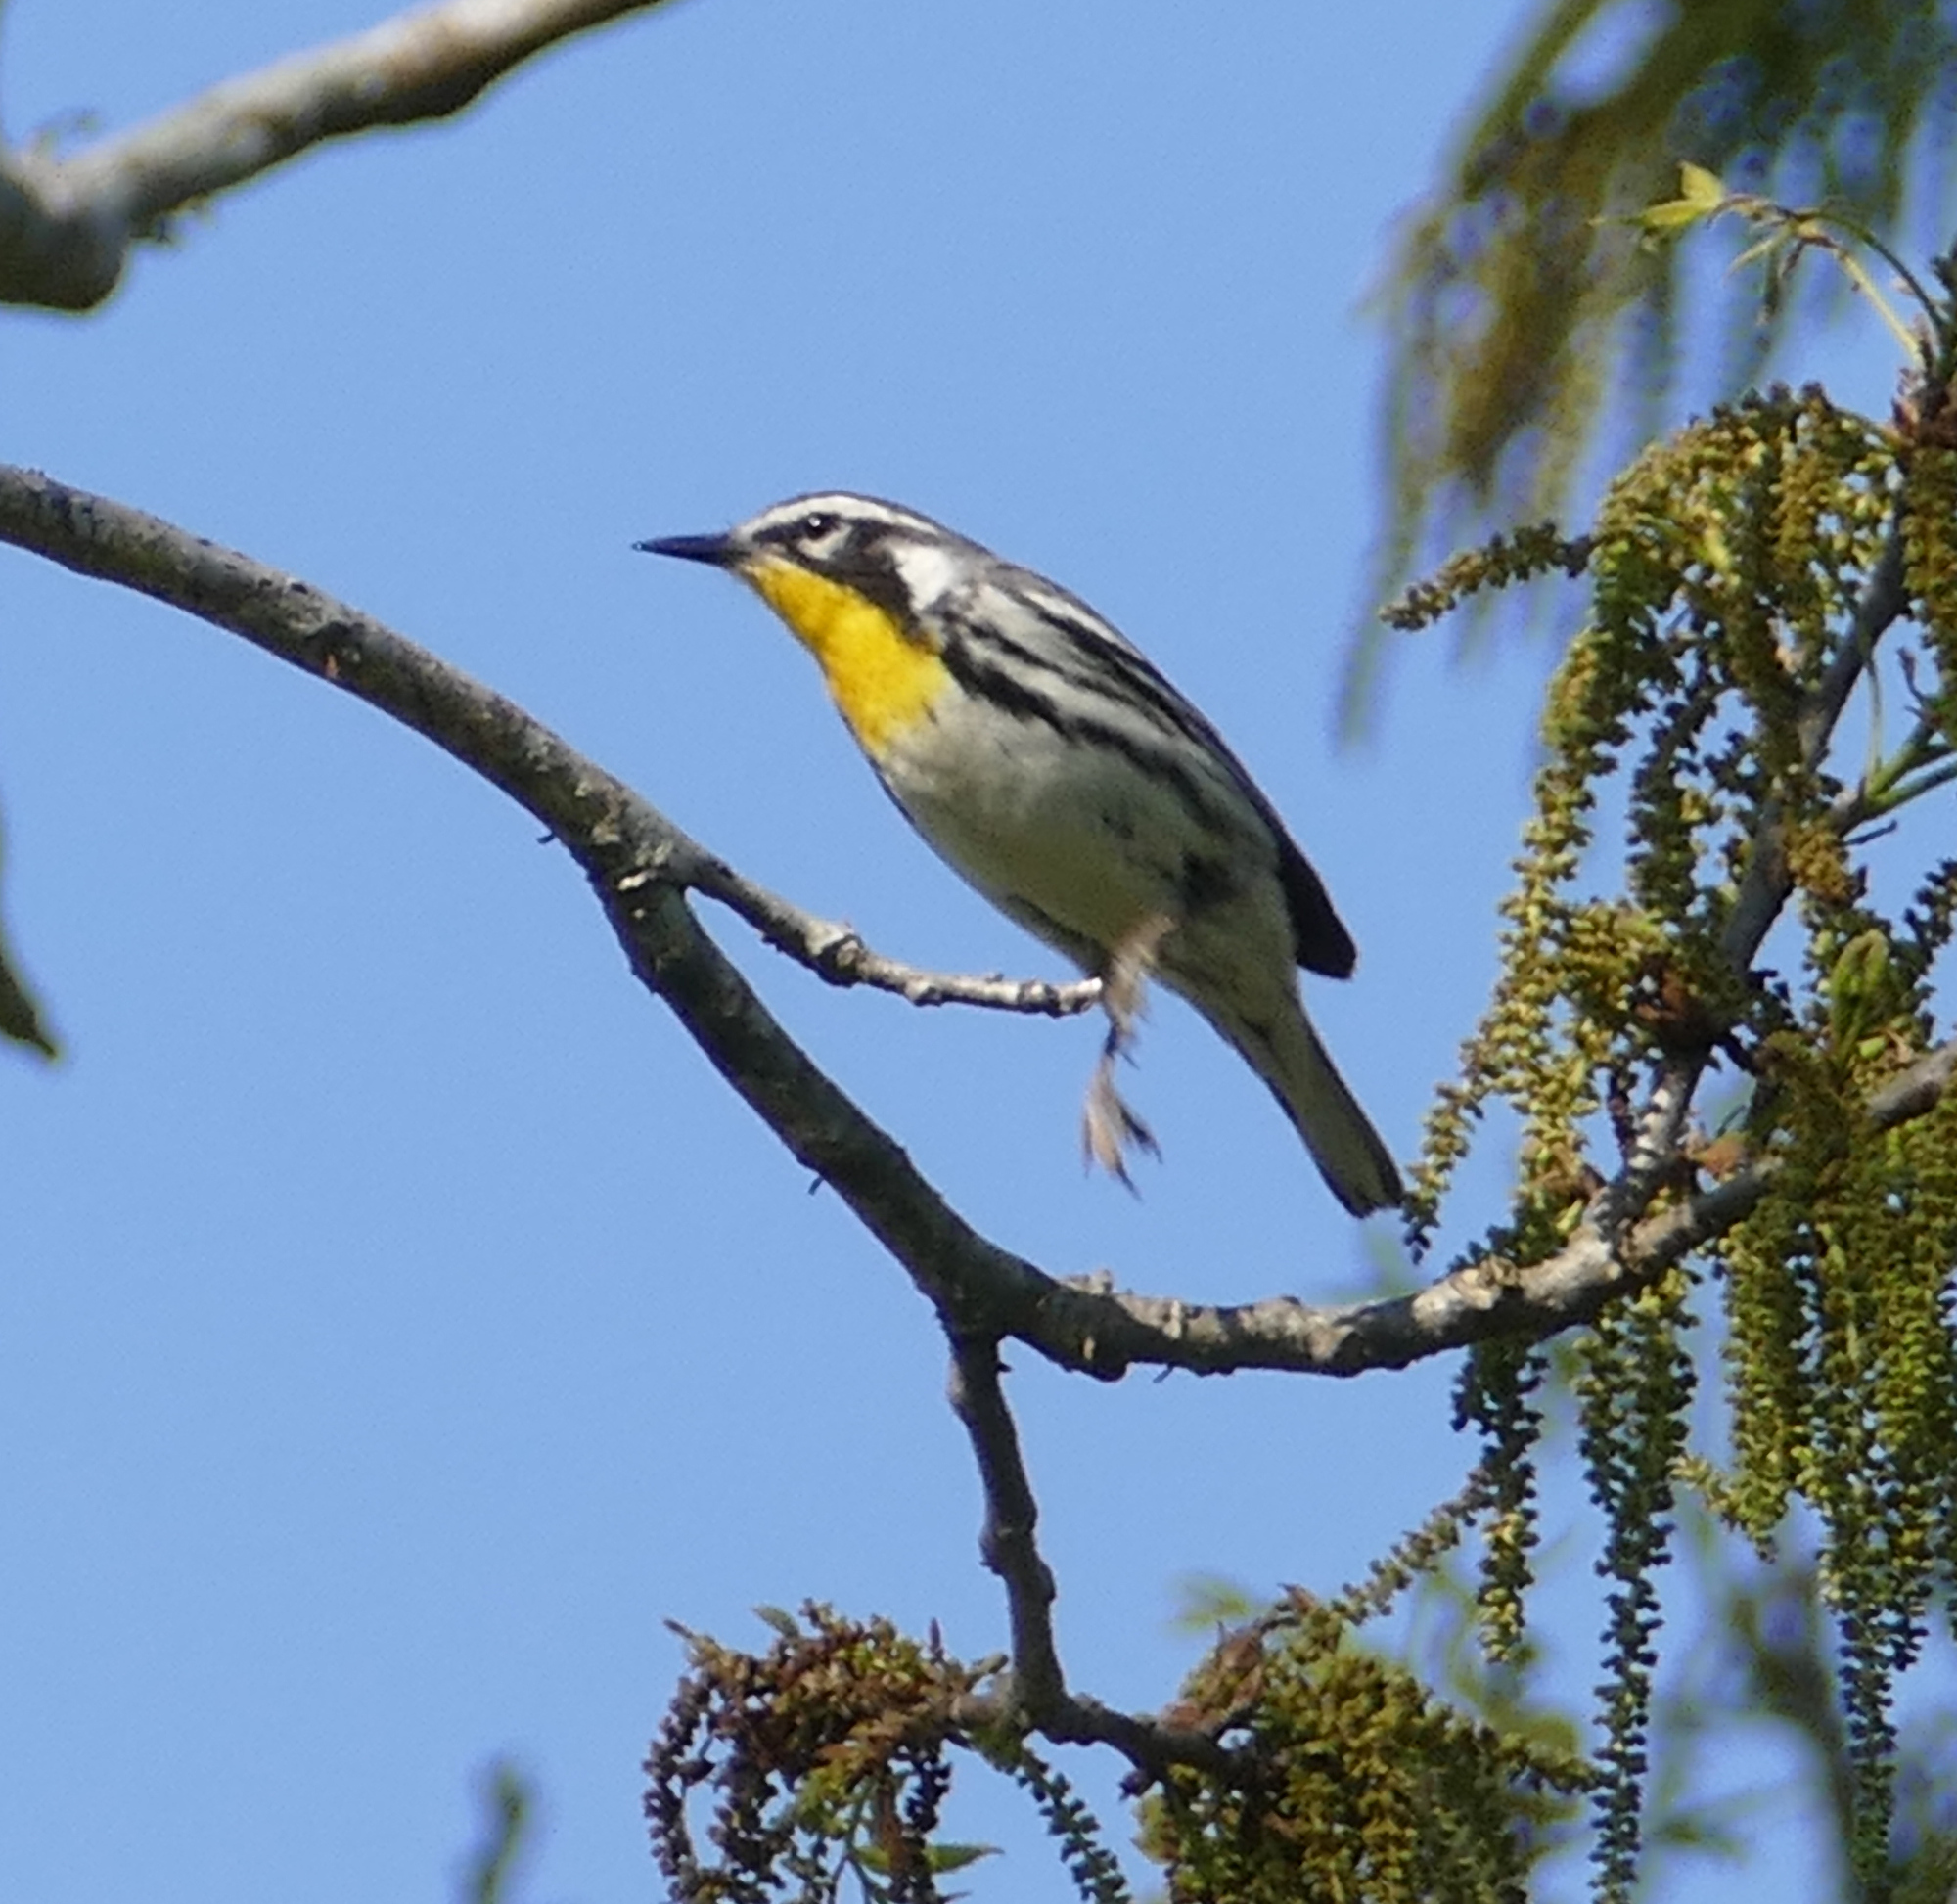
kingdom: Animalia
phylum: Chordata
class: Aves
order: Passeriformes
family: Parulidae
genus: Setophaga
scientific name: Setophaga dominica
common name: Yellow-throated warbler
